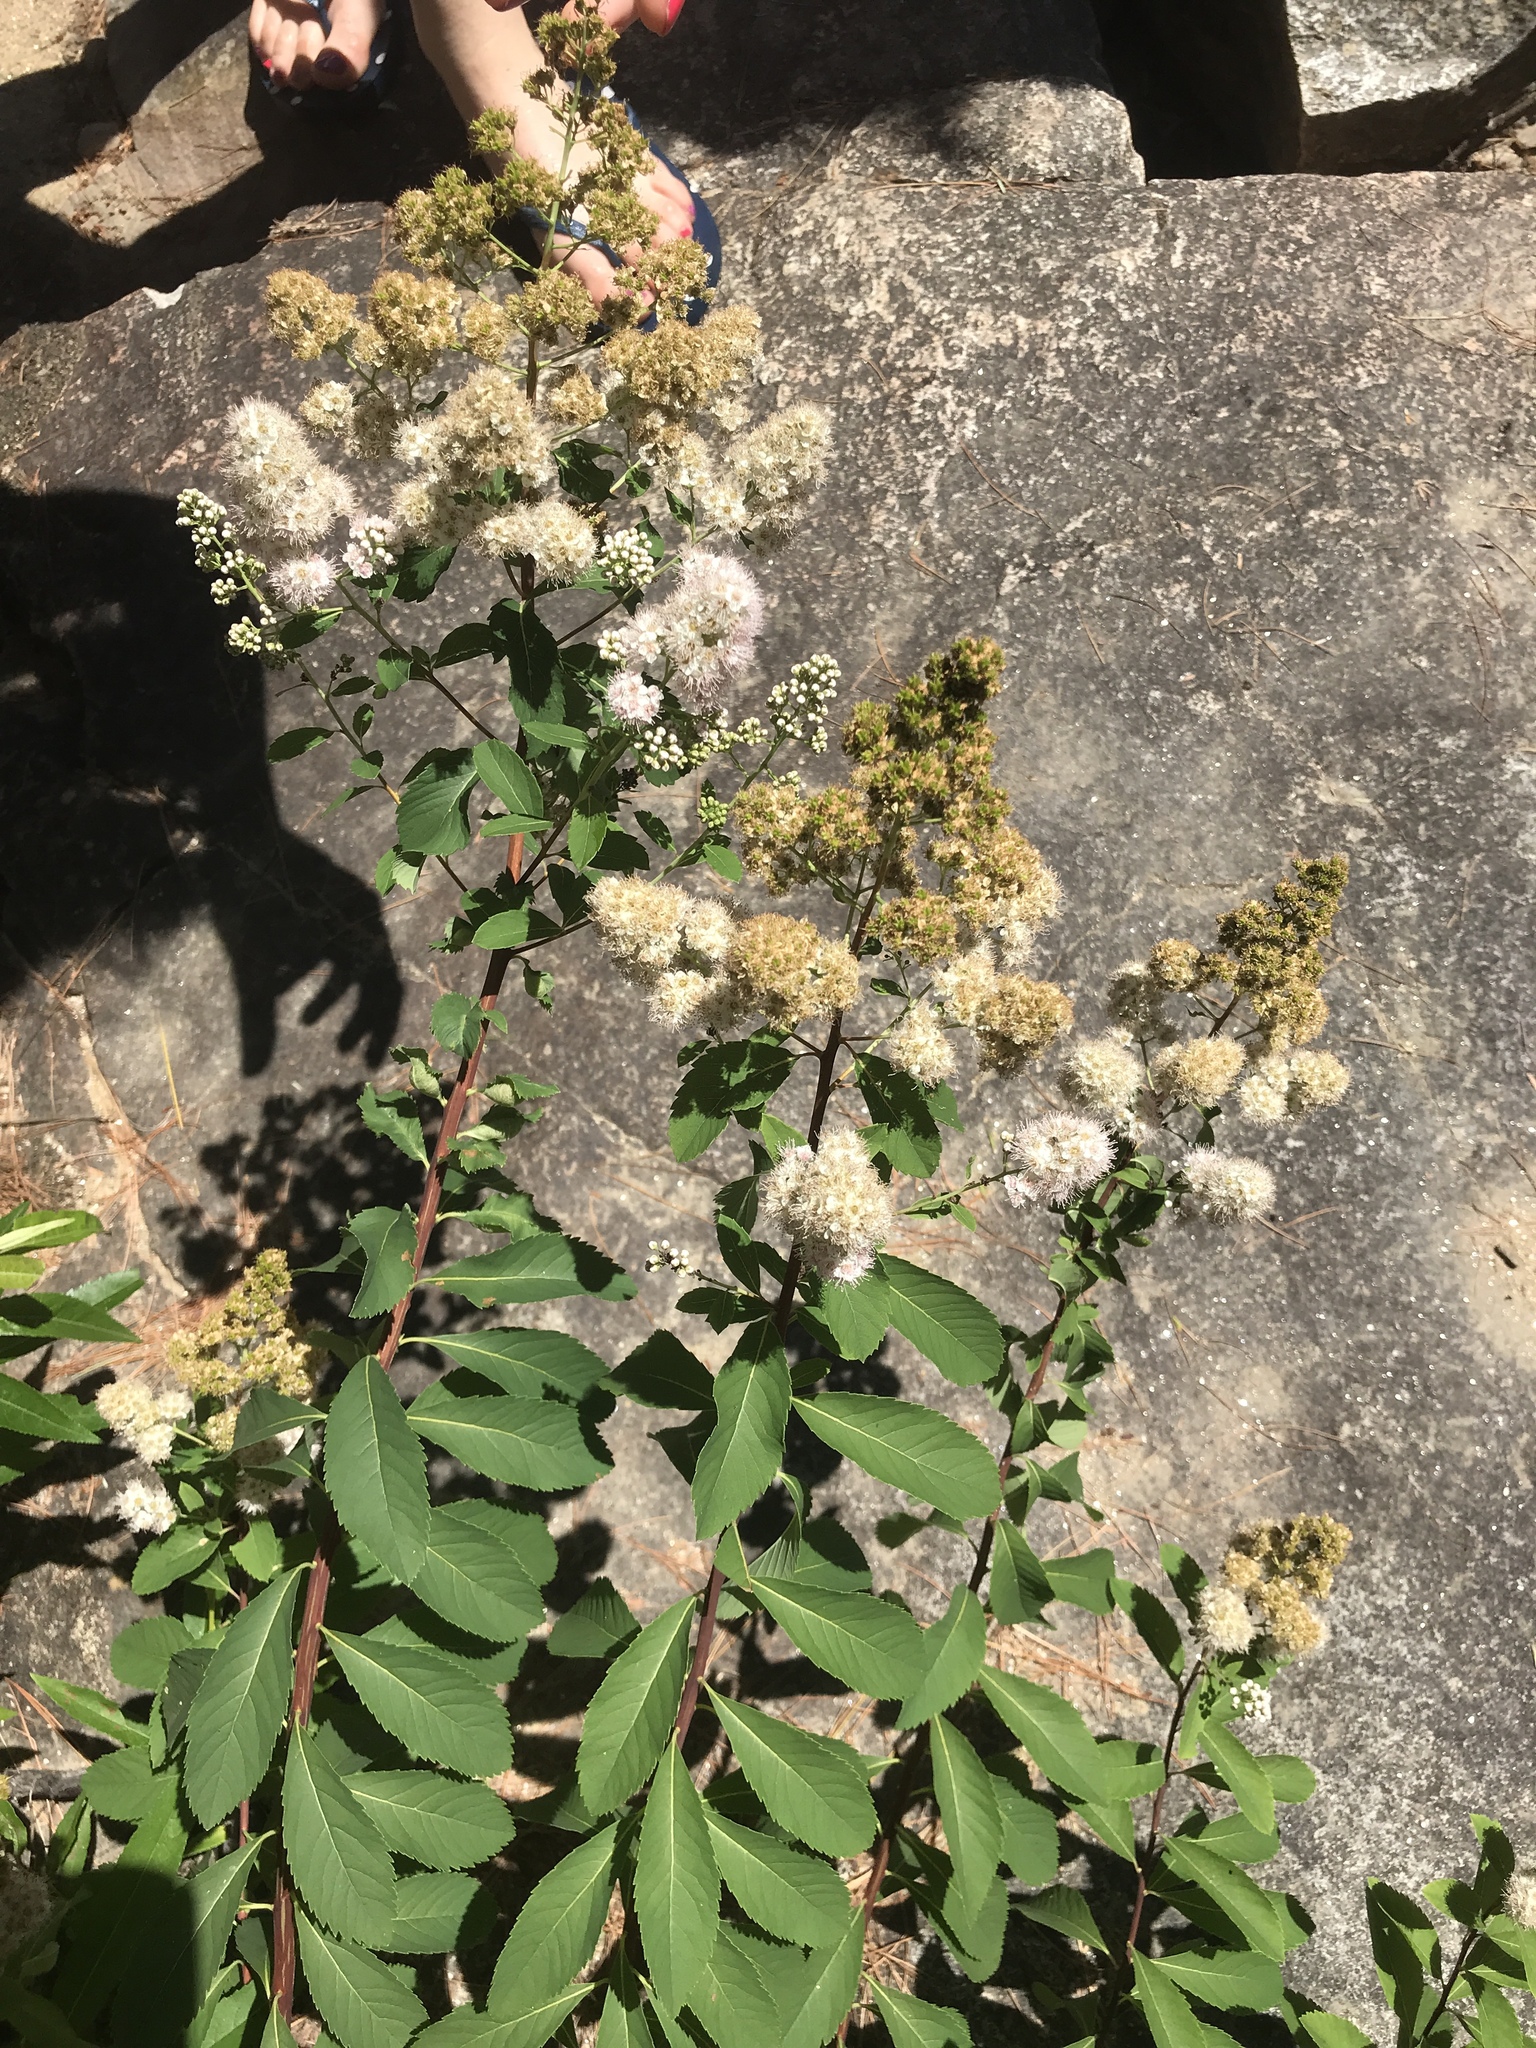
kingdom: Plantae
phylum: Tracheophyta
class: Magnoliopsida
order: Rosales
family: Rosaceae
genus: Spiraea
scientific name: Spiraea alba
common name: Pale bridewort
